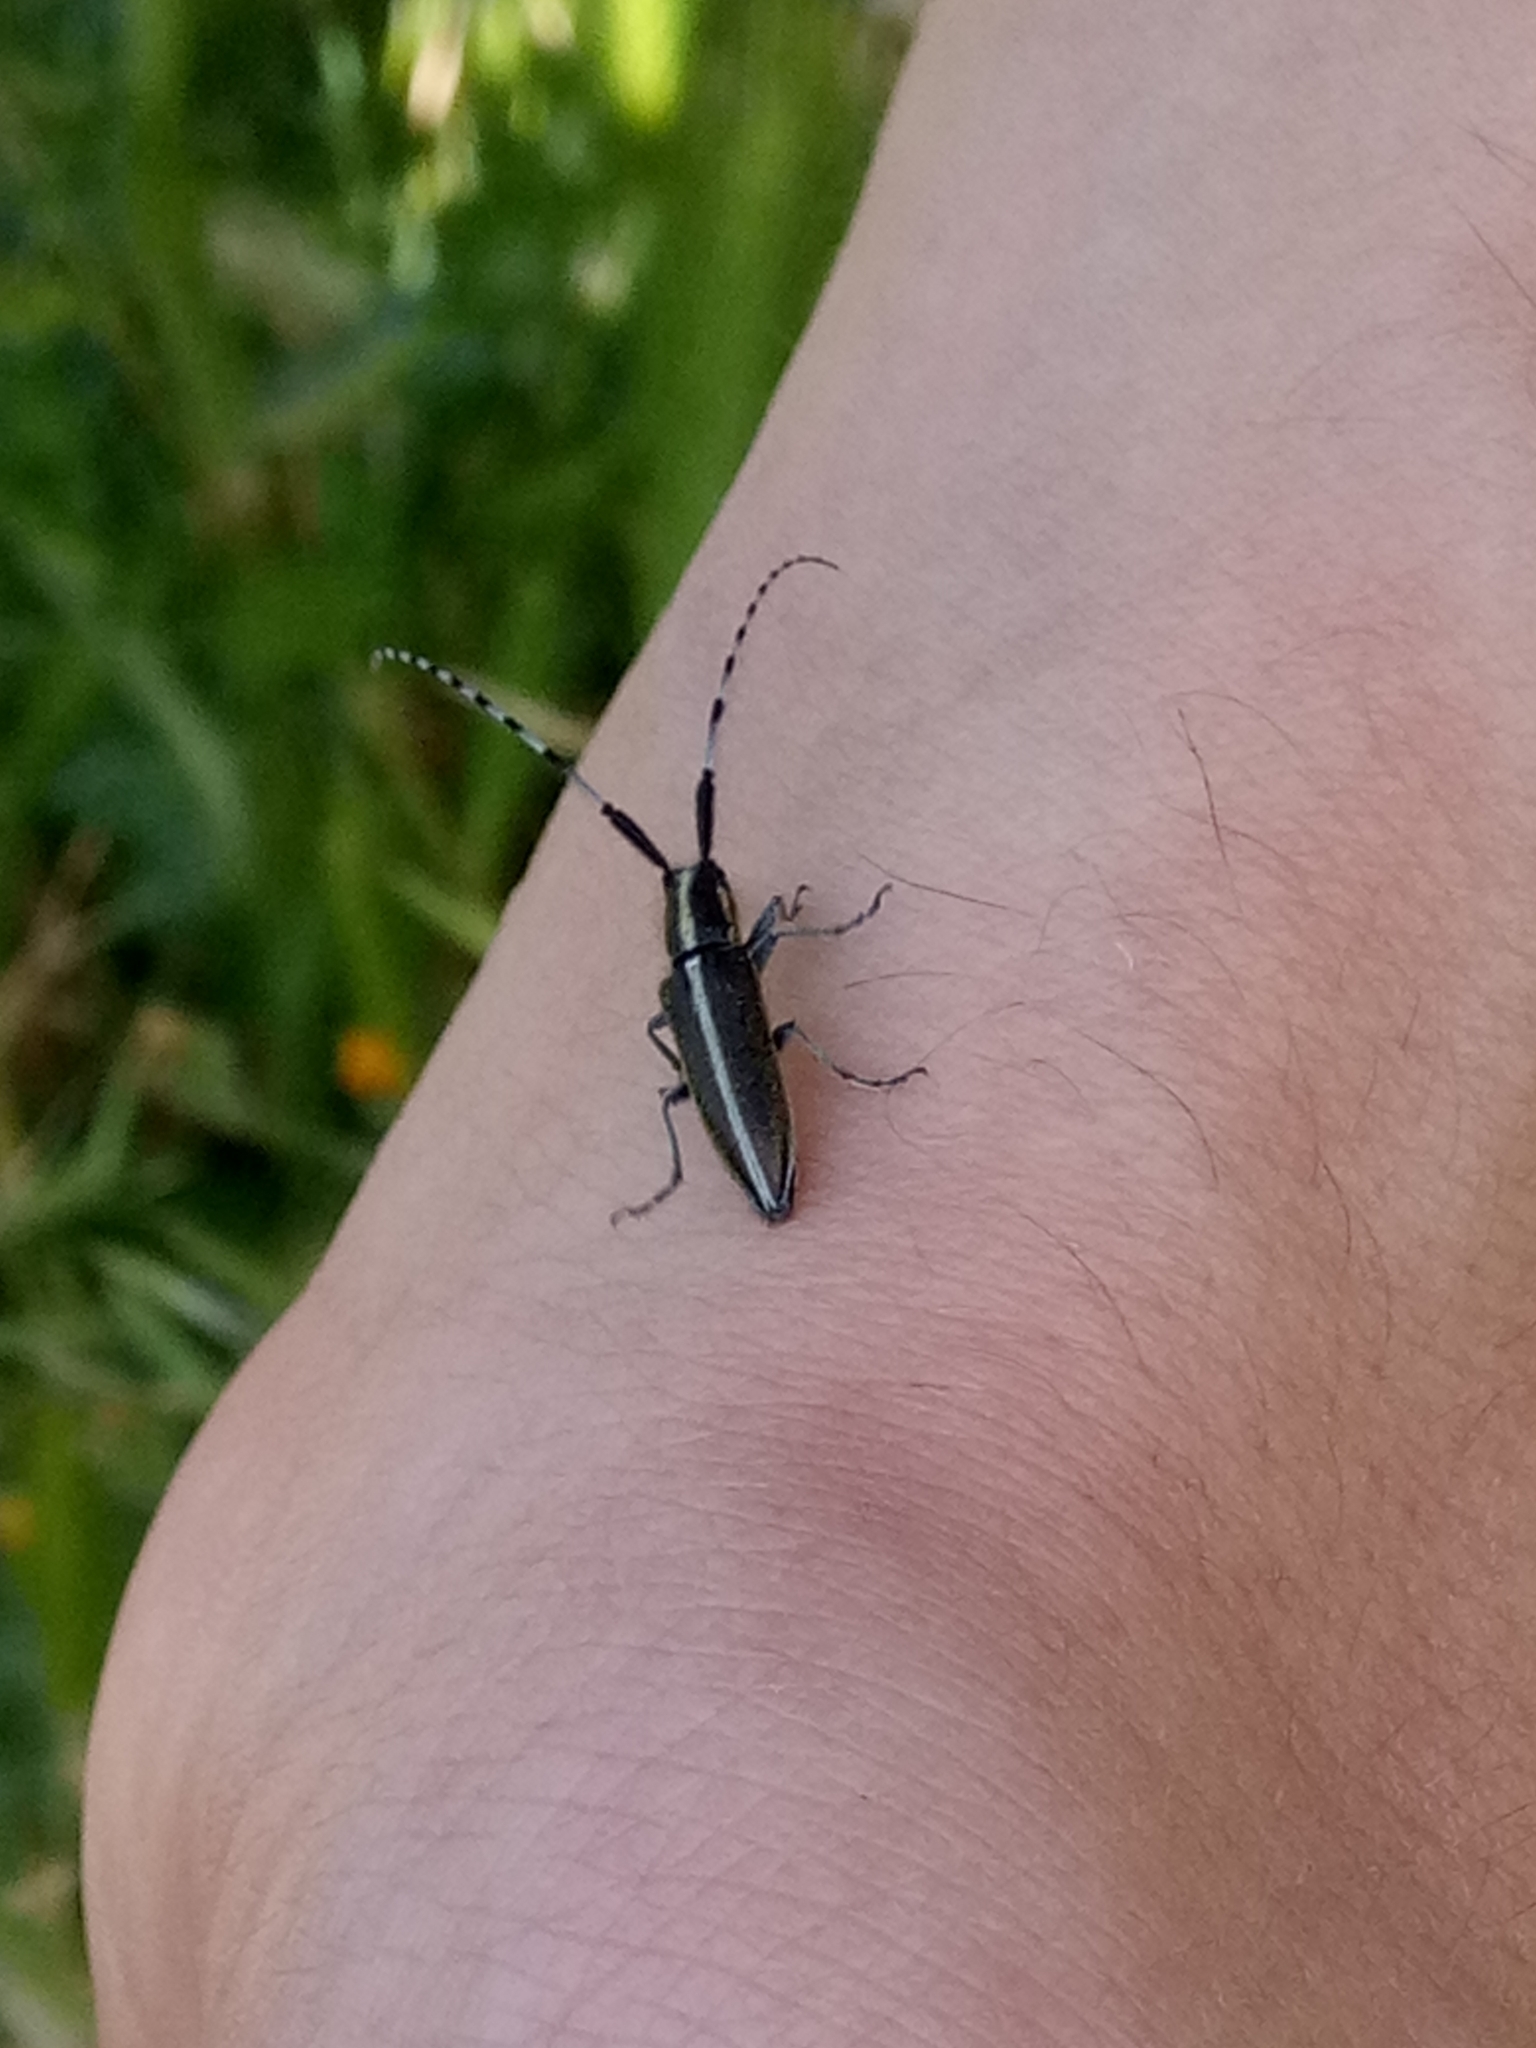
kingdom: Animalia
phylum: Arthropoda
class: Insecta
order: Coleoptera
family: Cerambycidae
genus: Agapanthia
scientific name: Agapanthia suturalis
